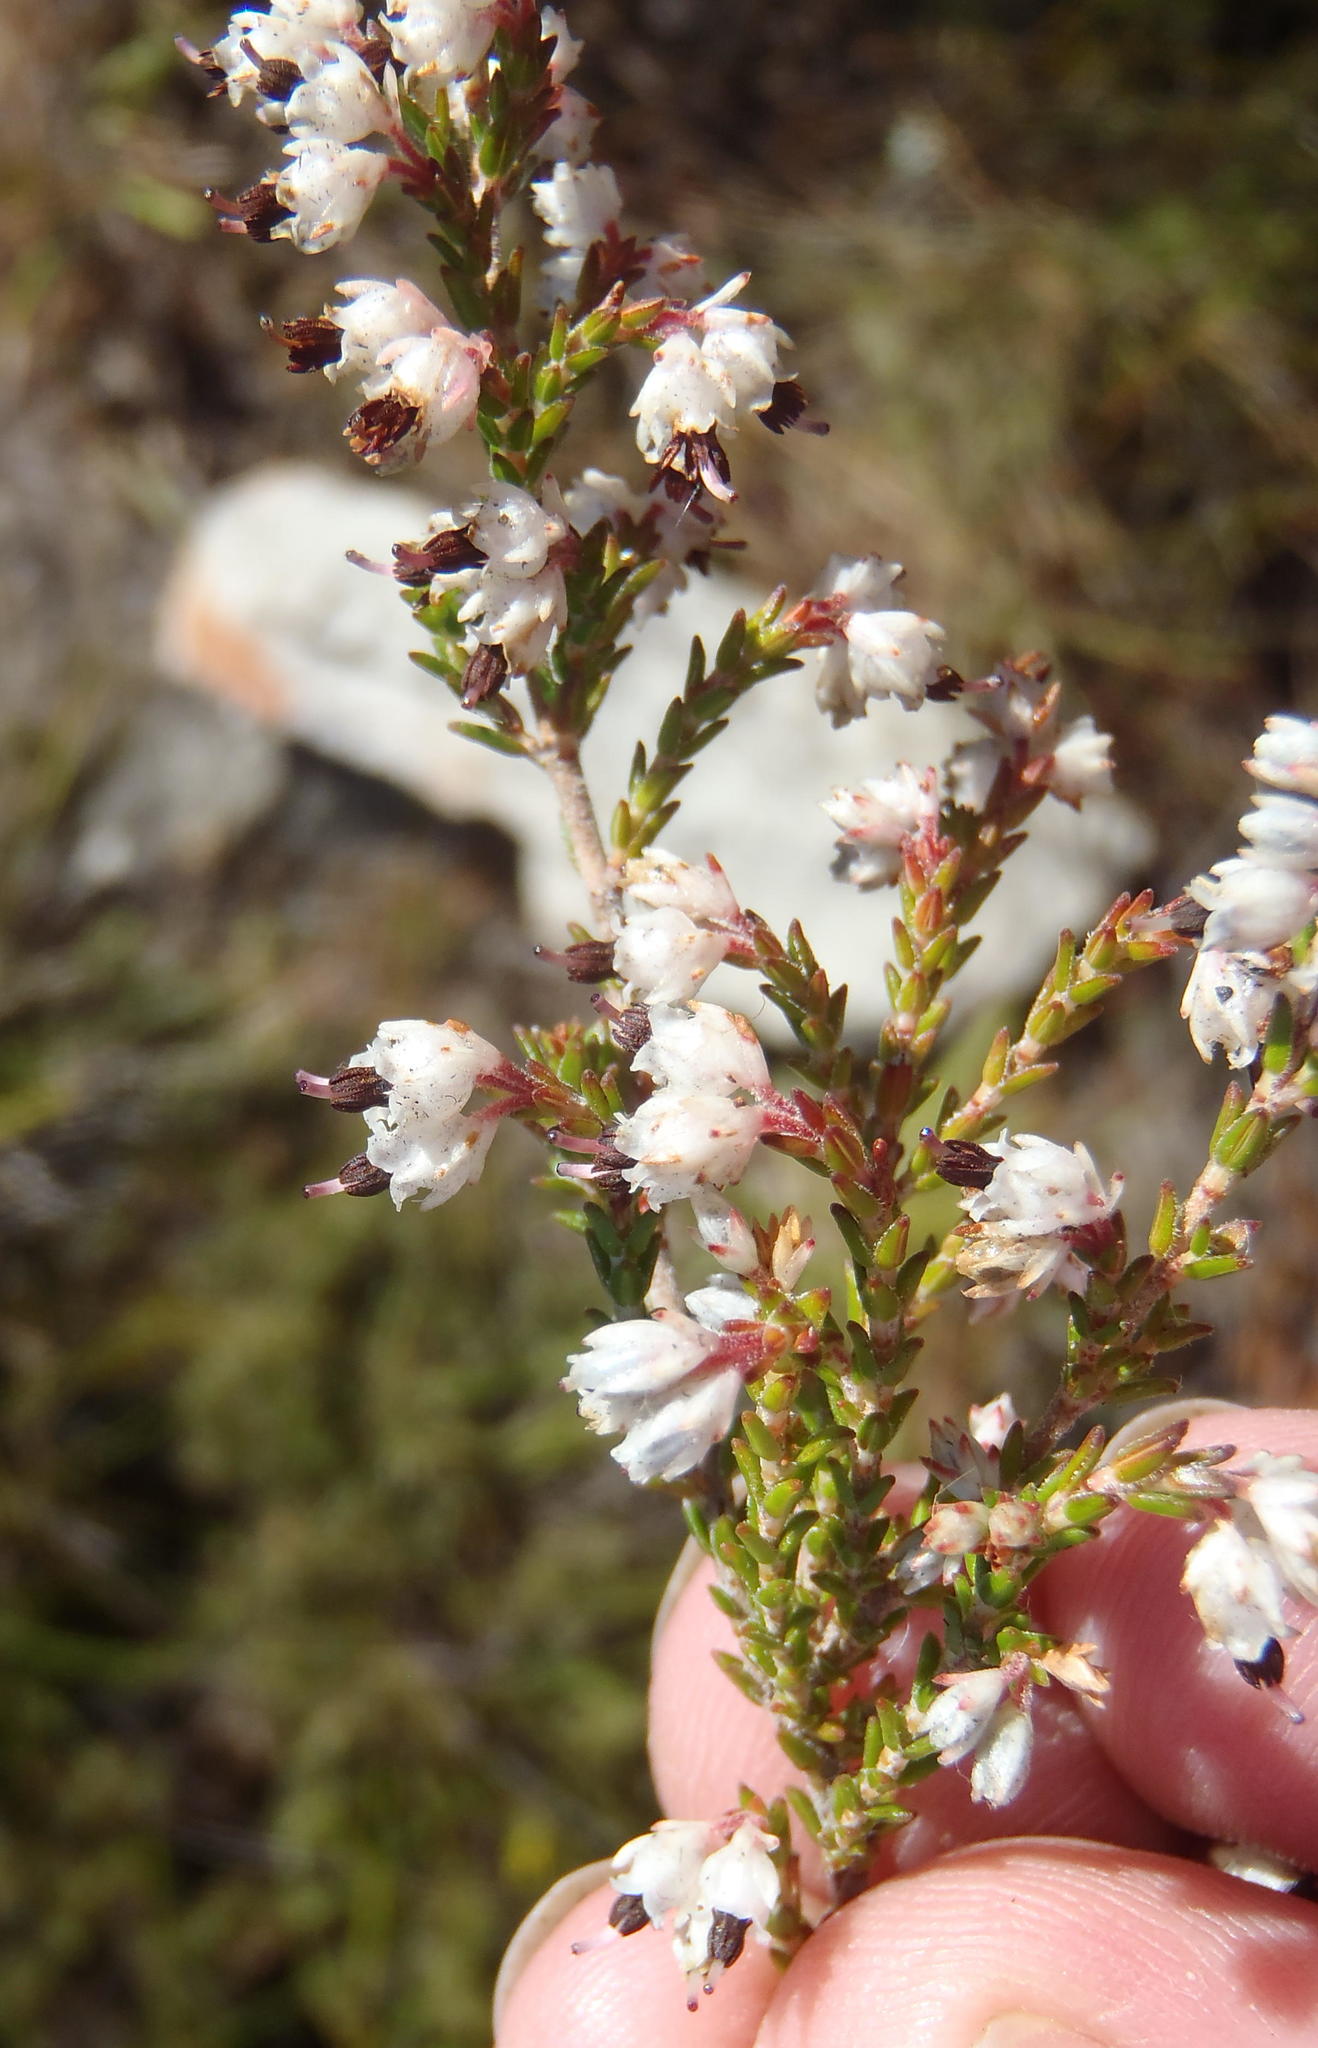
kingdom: Plantae
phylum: Tracheophyta
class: Magnoliopsida
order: Ericales
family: Ericaceae
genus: Erica
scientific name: Erica triceps
